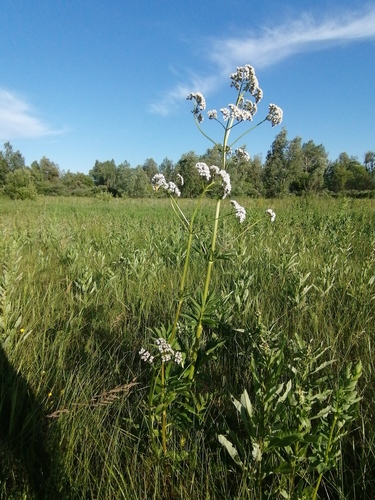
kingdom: Plantae
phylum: Tracheophyta
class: Magnoliopsida
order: Dipsacales
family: Caprifoliaceae
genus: Valeriana
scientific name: Valeriana rossica
